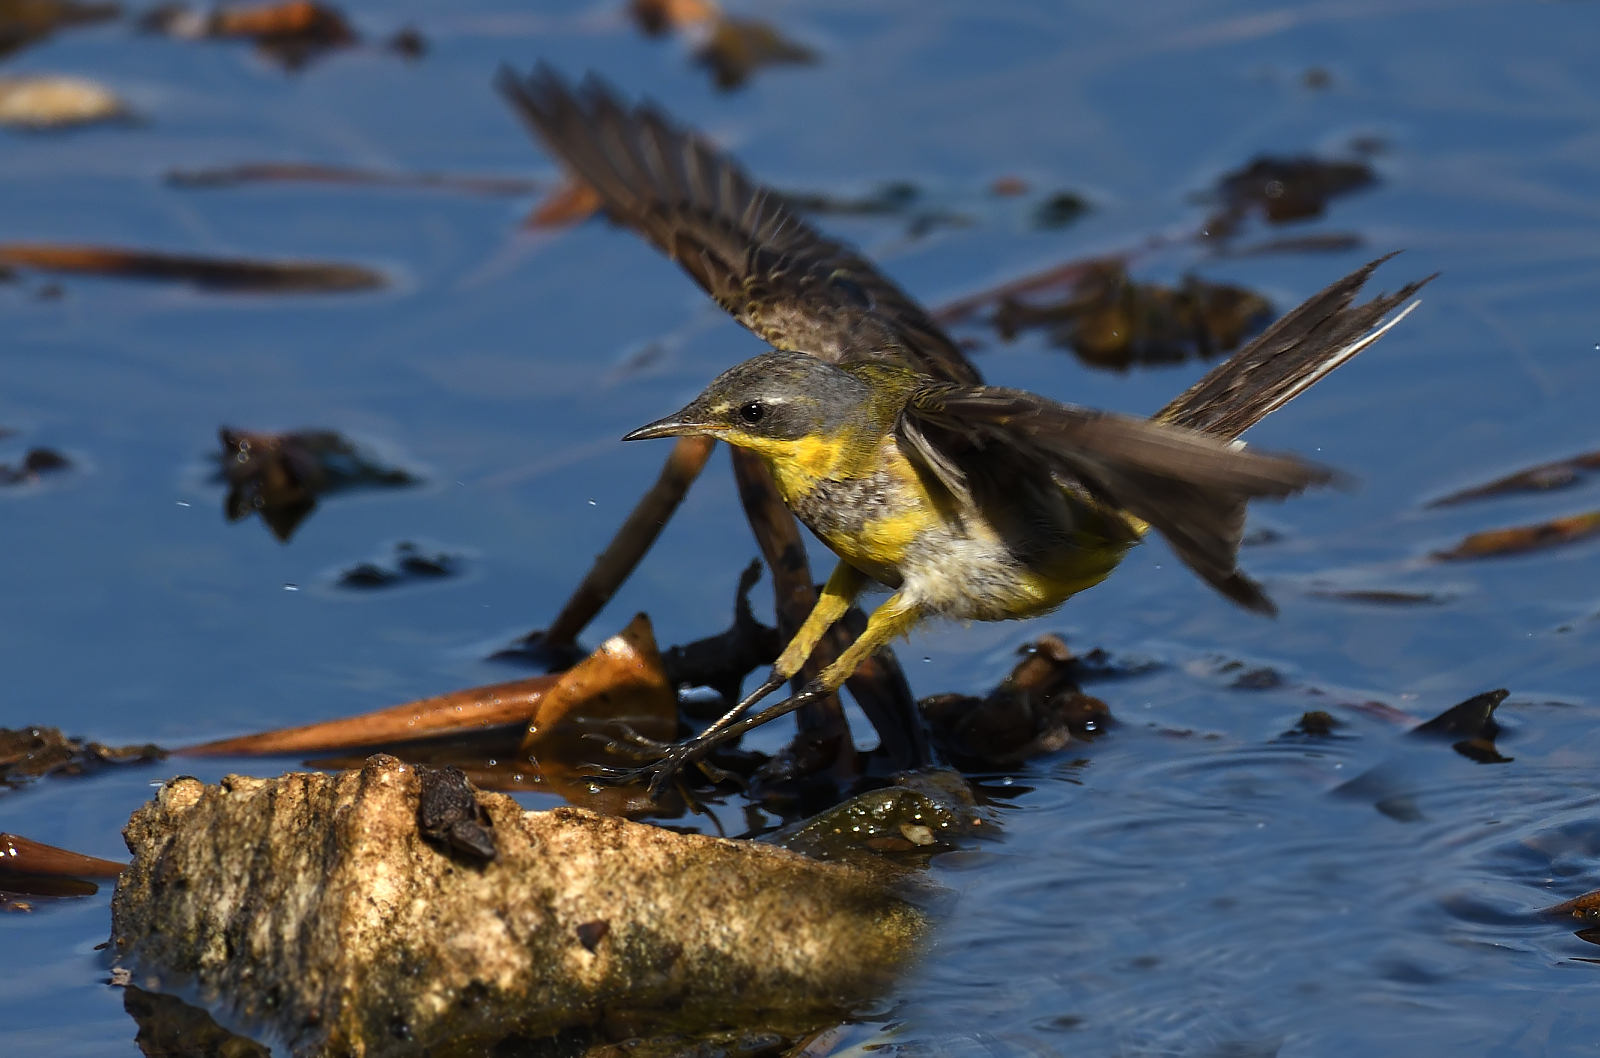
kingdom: Animalia
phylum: Chordata
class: Aves
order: Passeriformes
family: Motacillidae
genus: Motacilla
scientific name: Motacilla tschutschensis
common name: Eastern yellow wagtail
